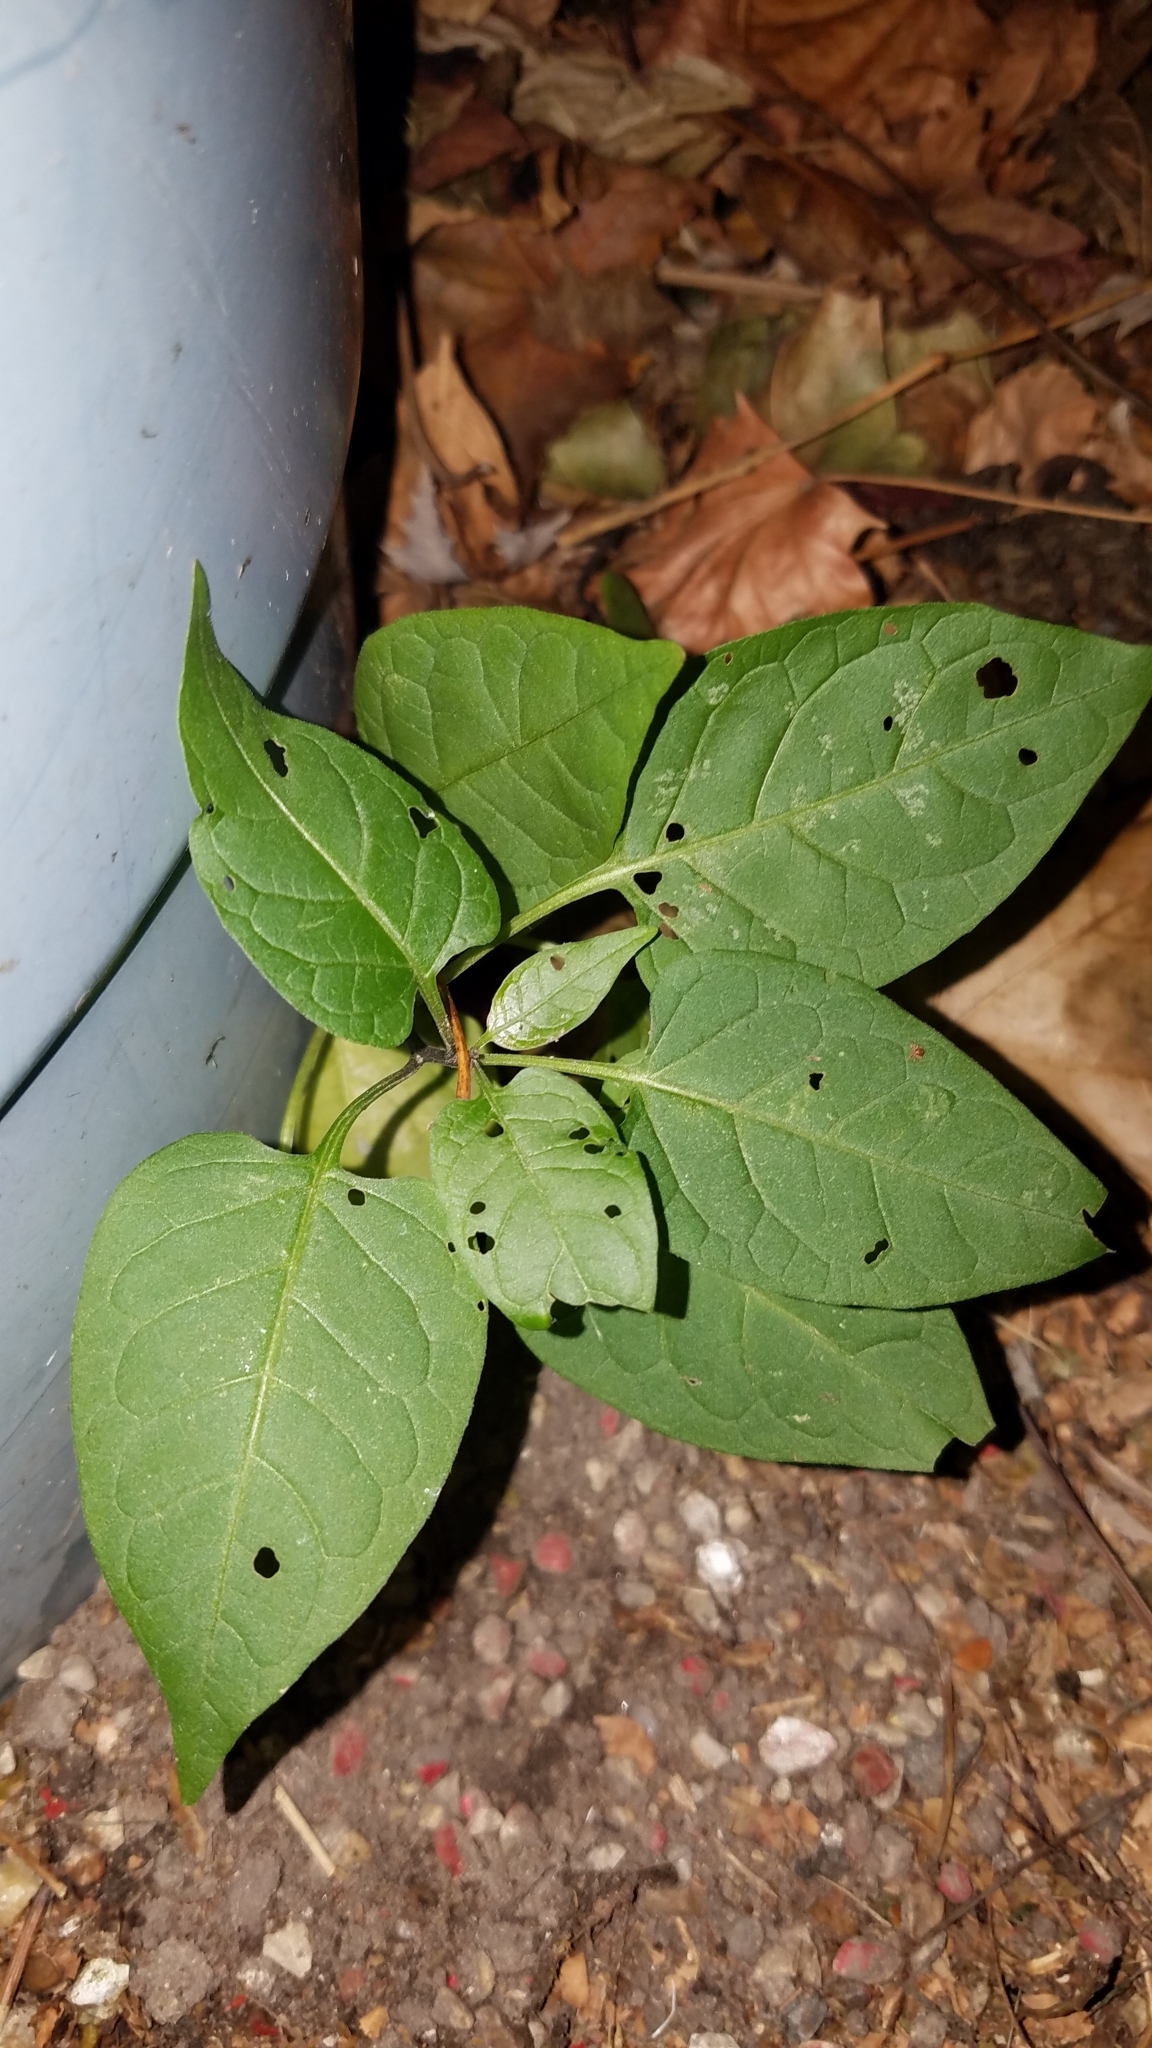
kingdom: Plantae
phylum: Tracheophyta
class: Magnoliopsida
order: Solanales
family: Solanaceae
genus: Solanum
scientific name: Solanum dulcamara
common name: Climbing nightshade
